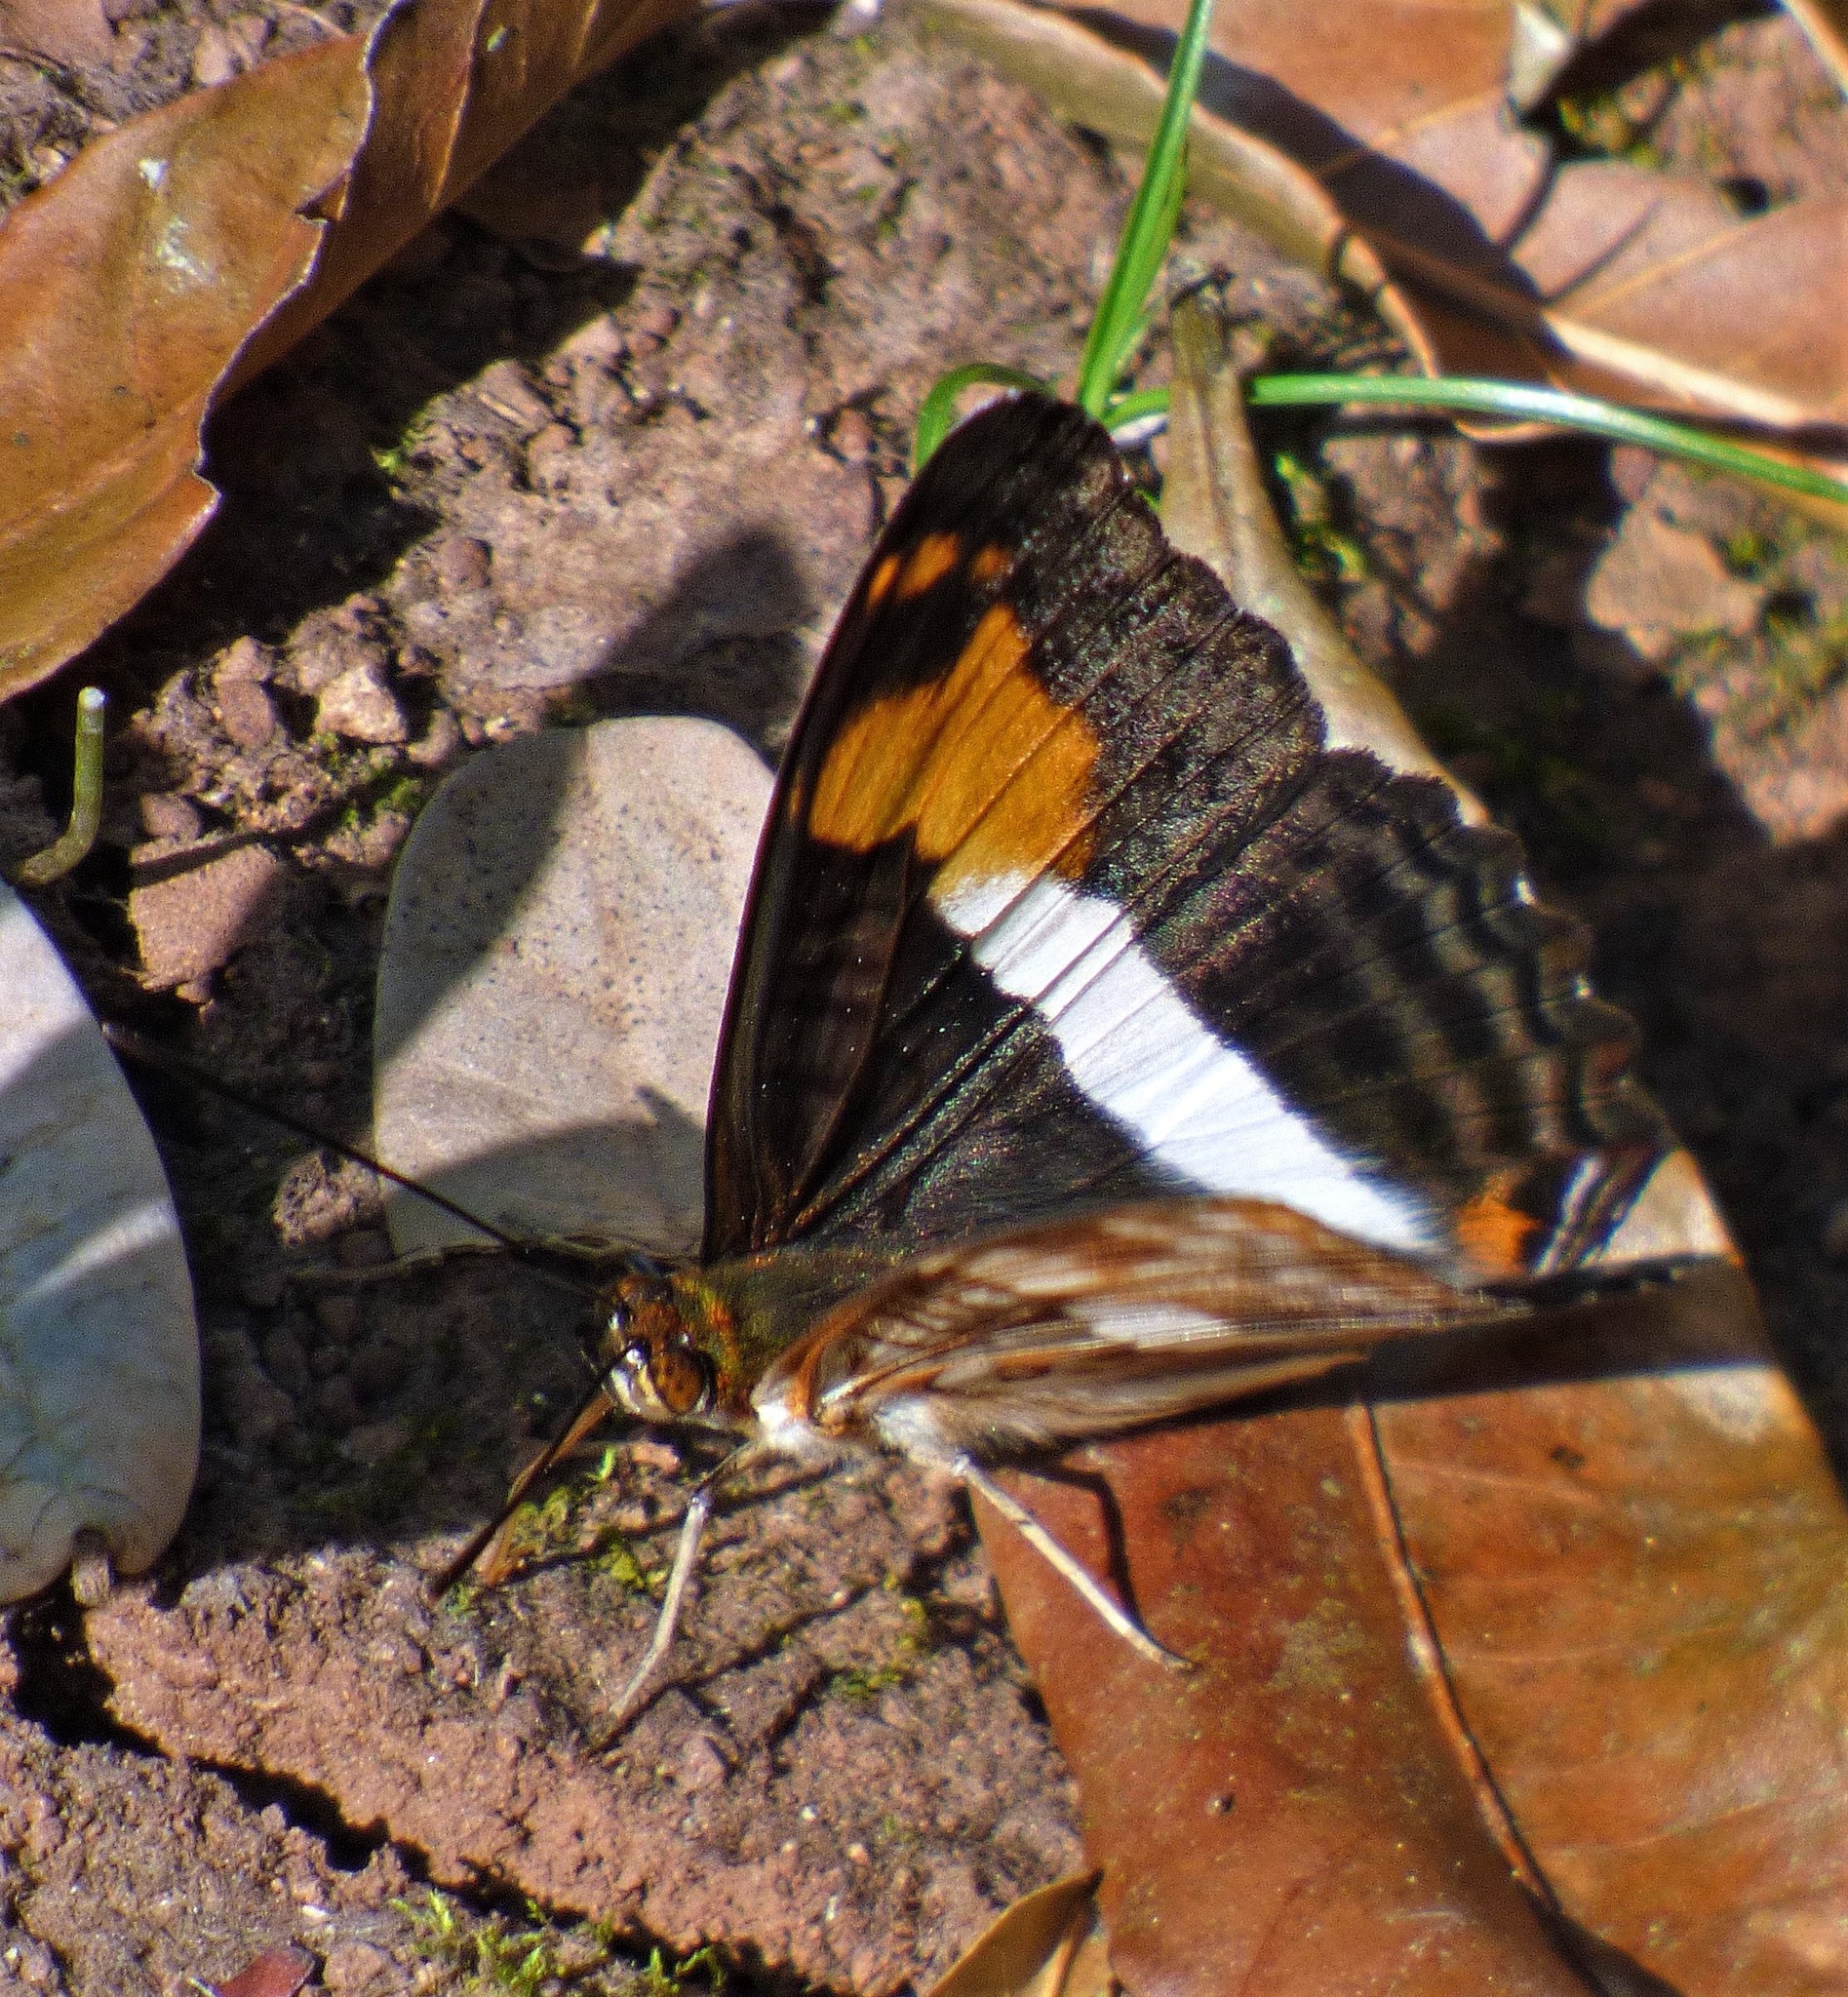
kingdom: Animalia
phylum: Arthropoda
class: Insecta
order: Lepidoptera
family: Nymphalidae
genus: Limenitis
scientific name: Limenitis malea
